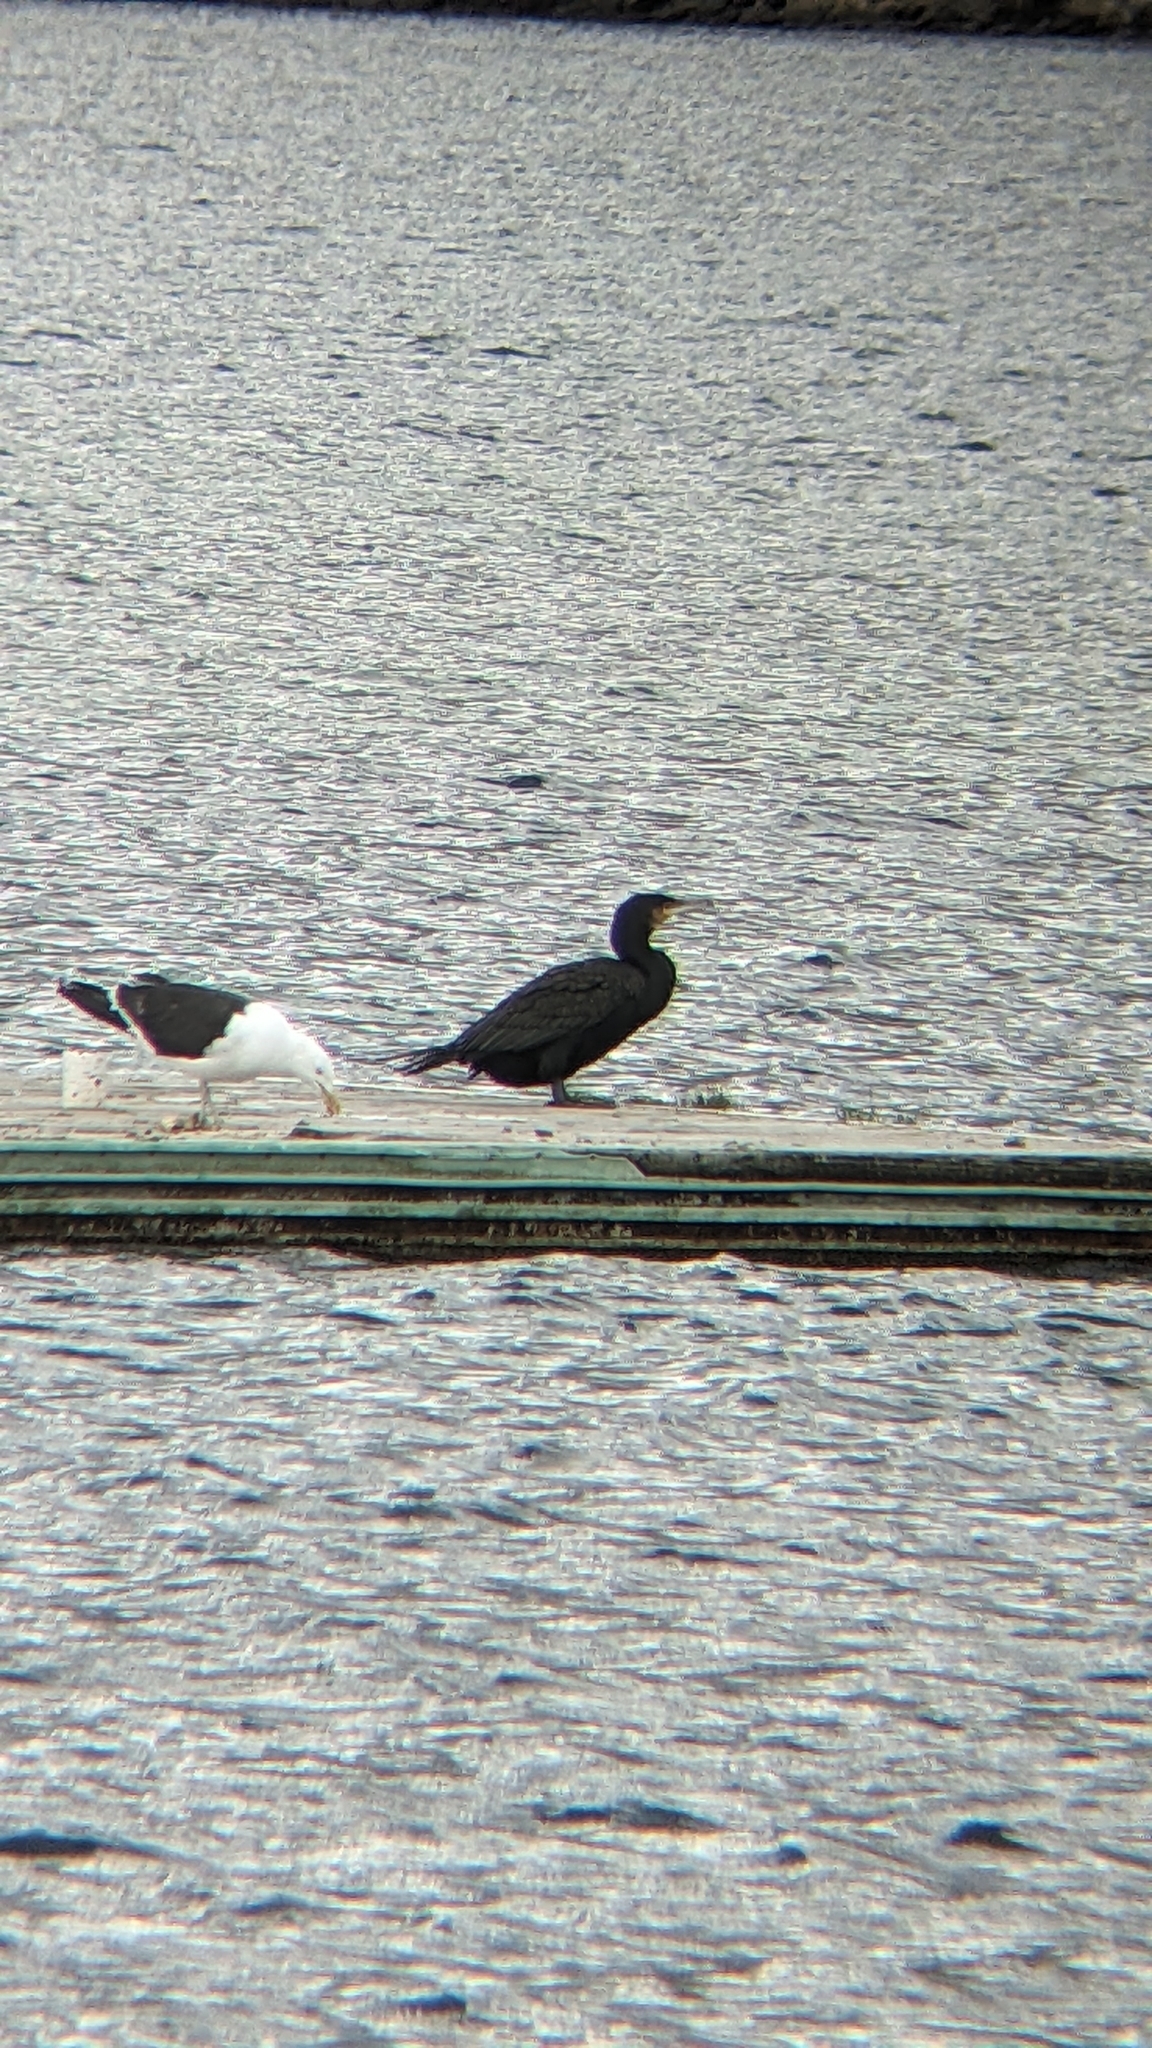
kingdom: Animalia
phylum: Chordata
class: Aves
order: Suliformes
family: Phalacrocoracidae
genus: Phalacrocorax
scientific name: Phalacrocorax carbo
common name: Great cormorant
